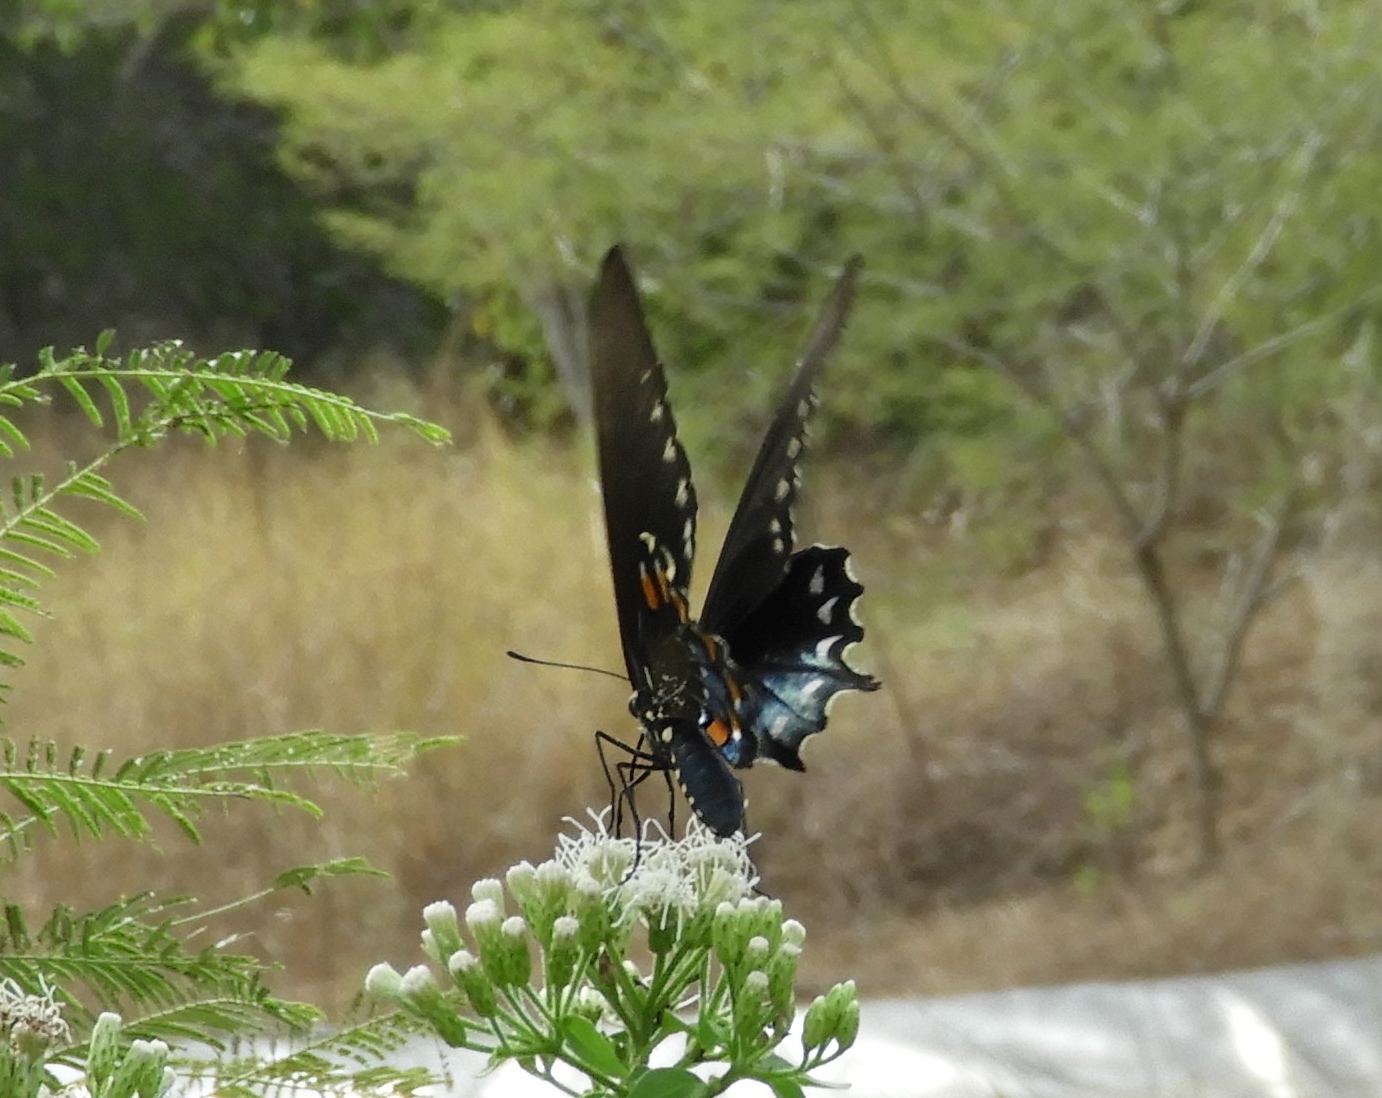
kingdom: Animalia
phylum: Arthropoda
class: Insecta
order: Lepidoptera
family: Papilionidae
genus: Battus
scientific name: Battus philenor
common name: Pipevine swallowtail
